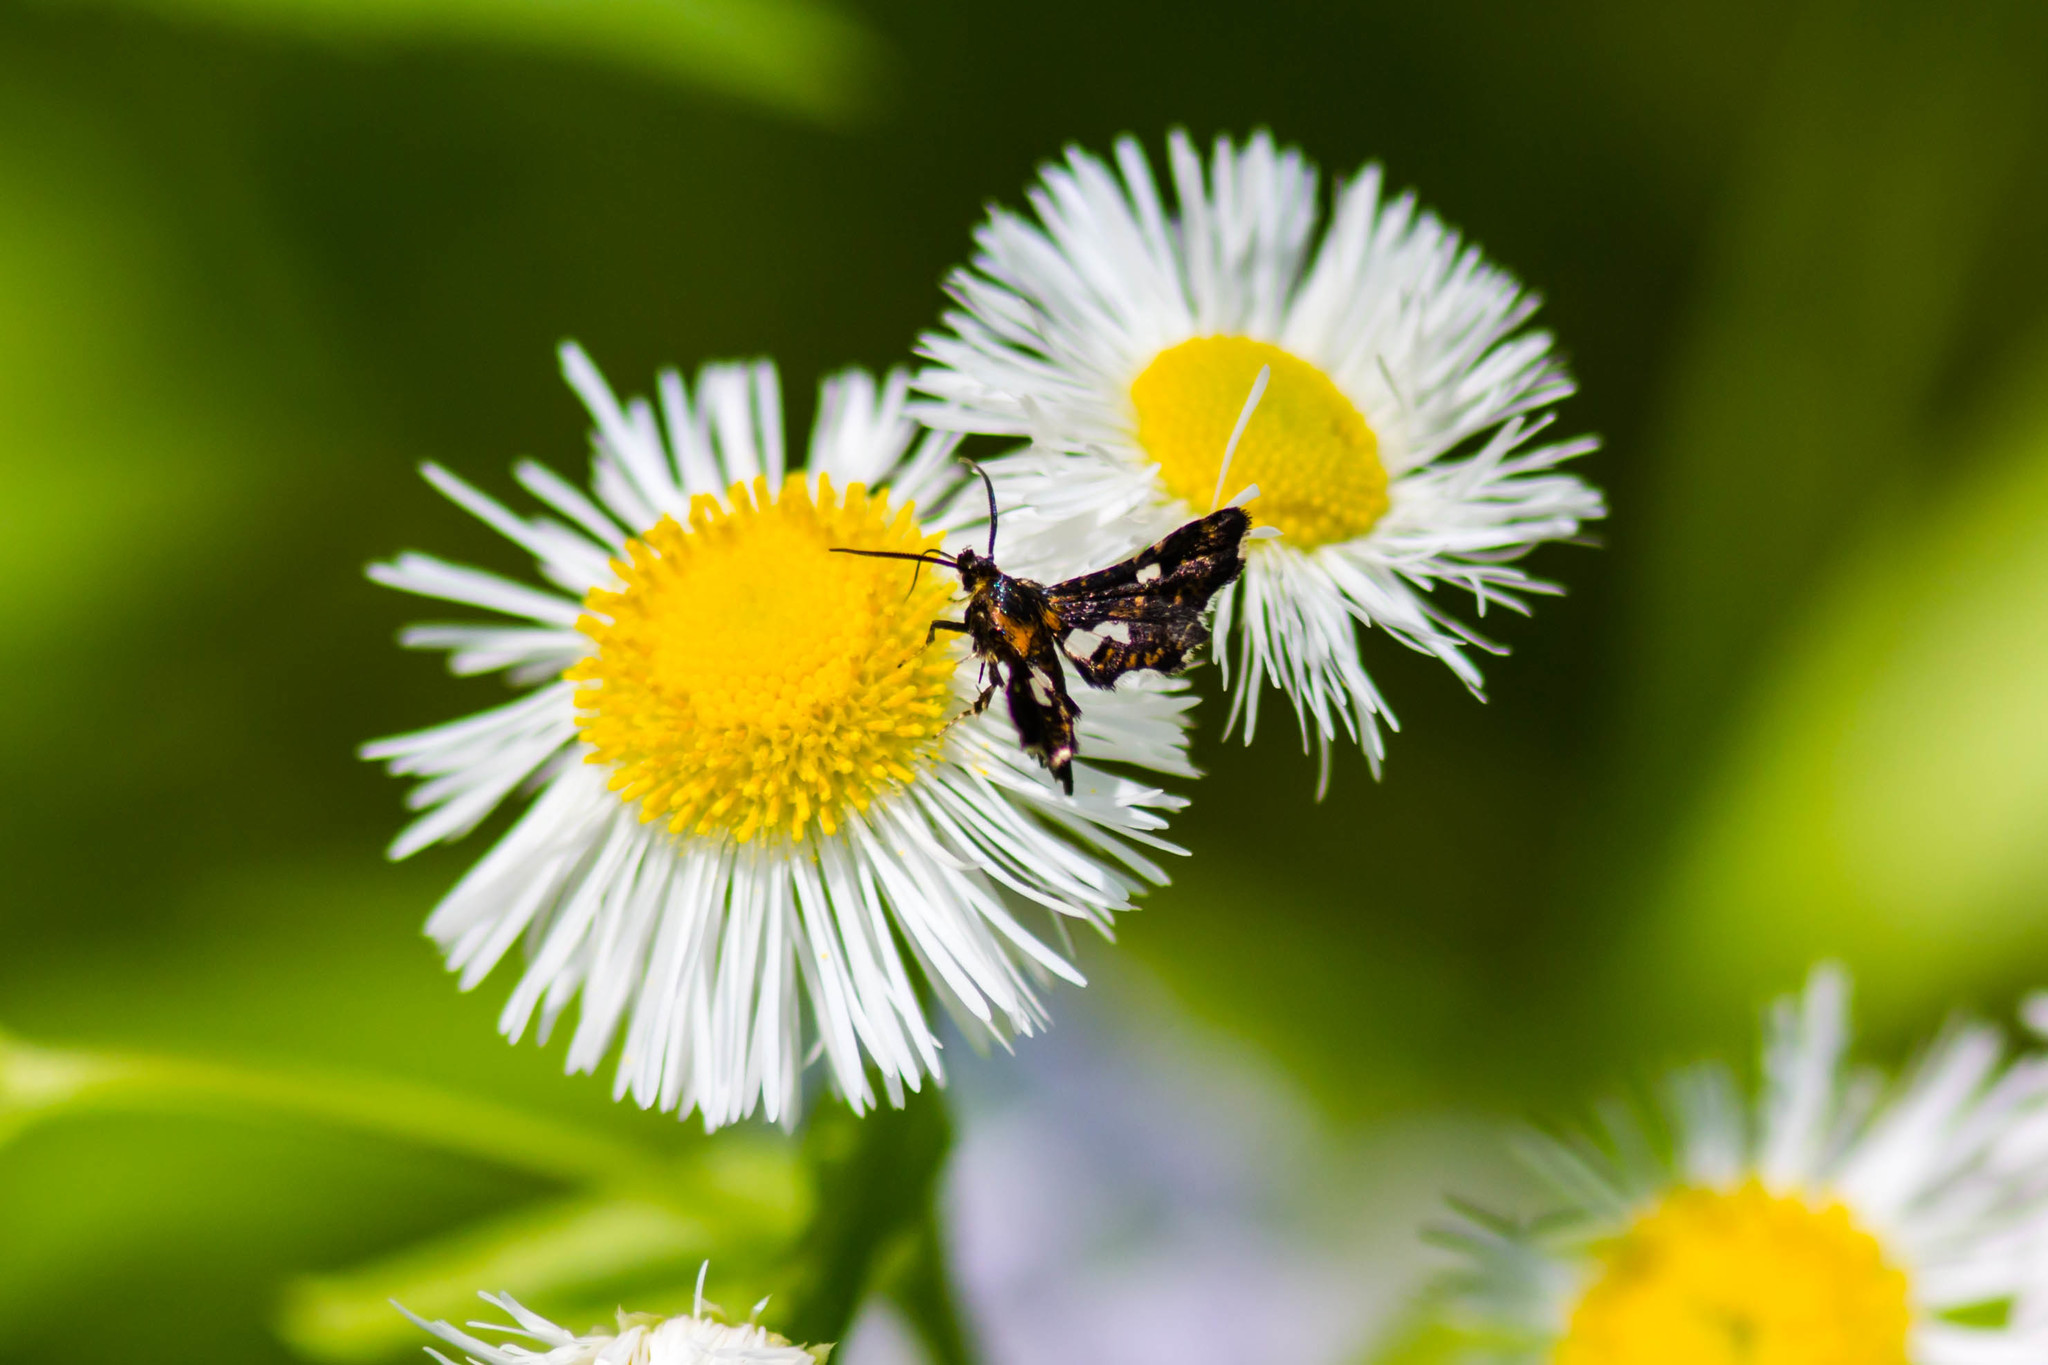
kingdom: Animalia
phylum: Arthropoda
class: Insecta
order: Lepidoptera
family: Thyrididae
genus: Thyris
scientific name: Thyris maculata
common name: Spotted thyris moth
